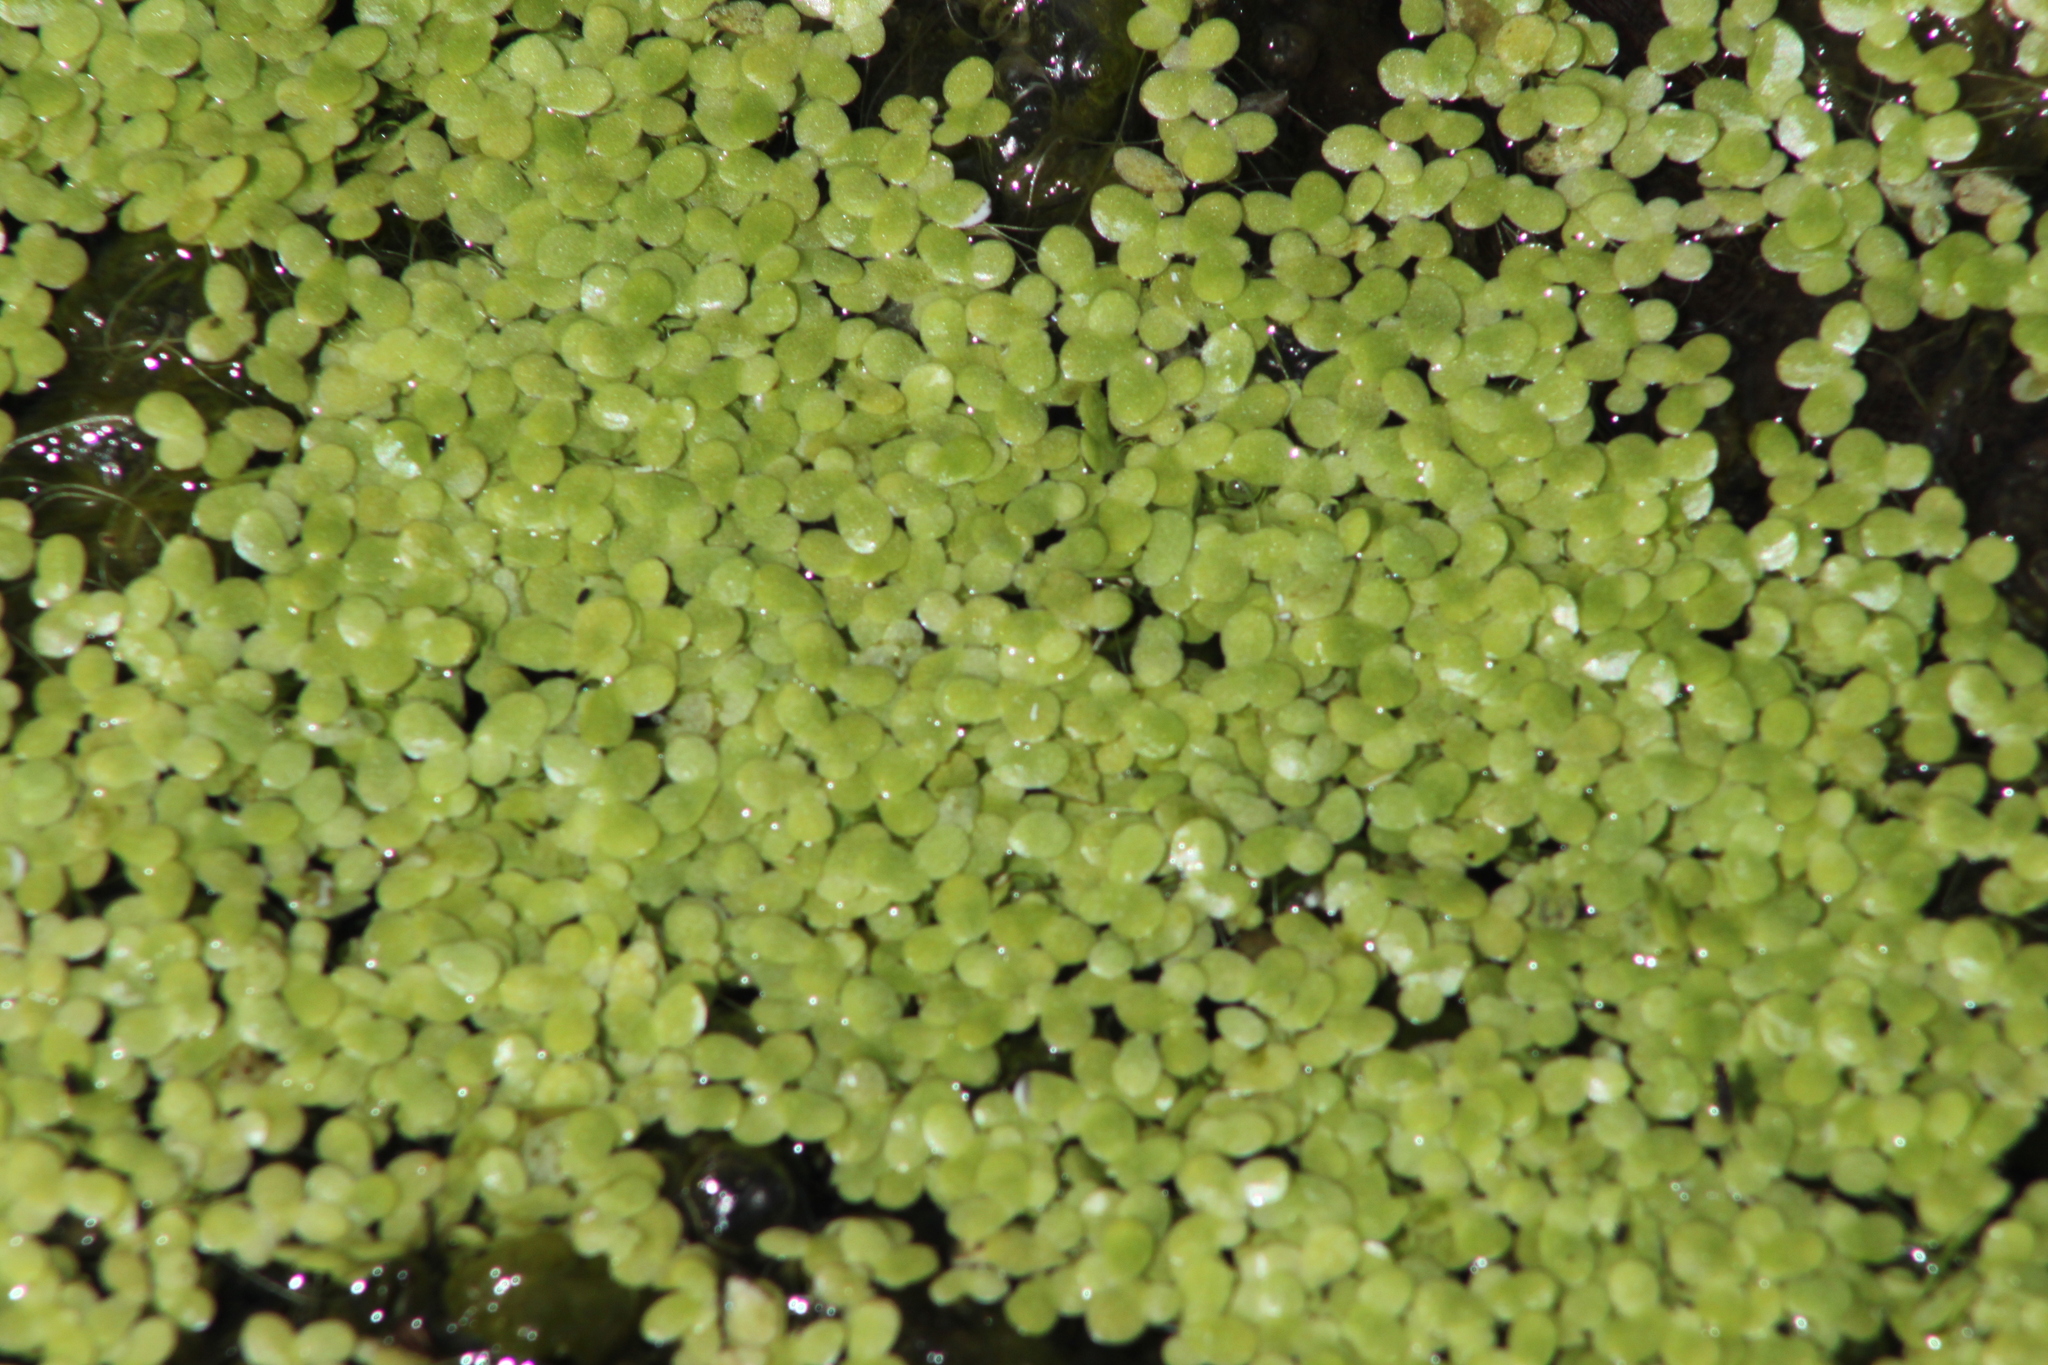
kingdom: Plantae
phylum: Tracheophyta
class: Liliopsida
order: Alismatales
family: Araceae
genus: Lemna
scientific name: Lemna minor
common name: Common duckweed
